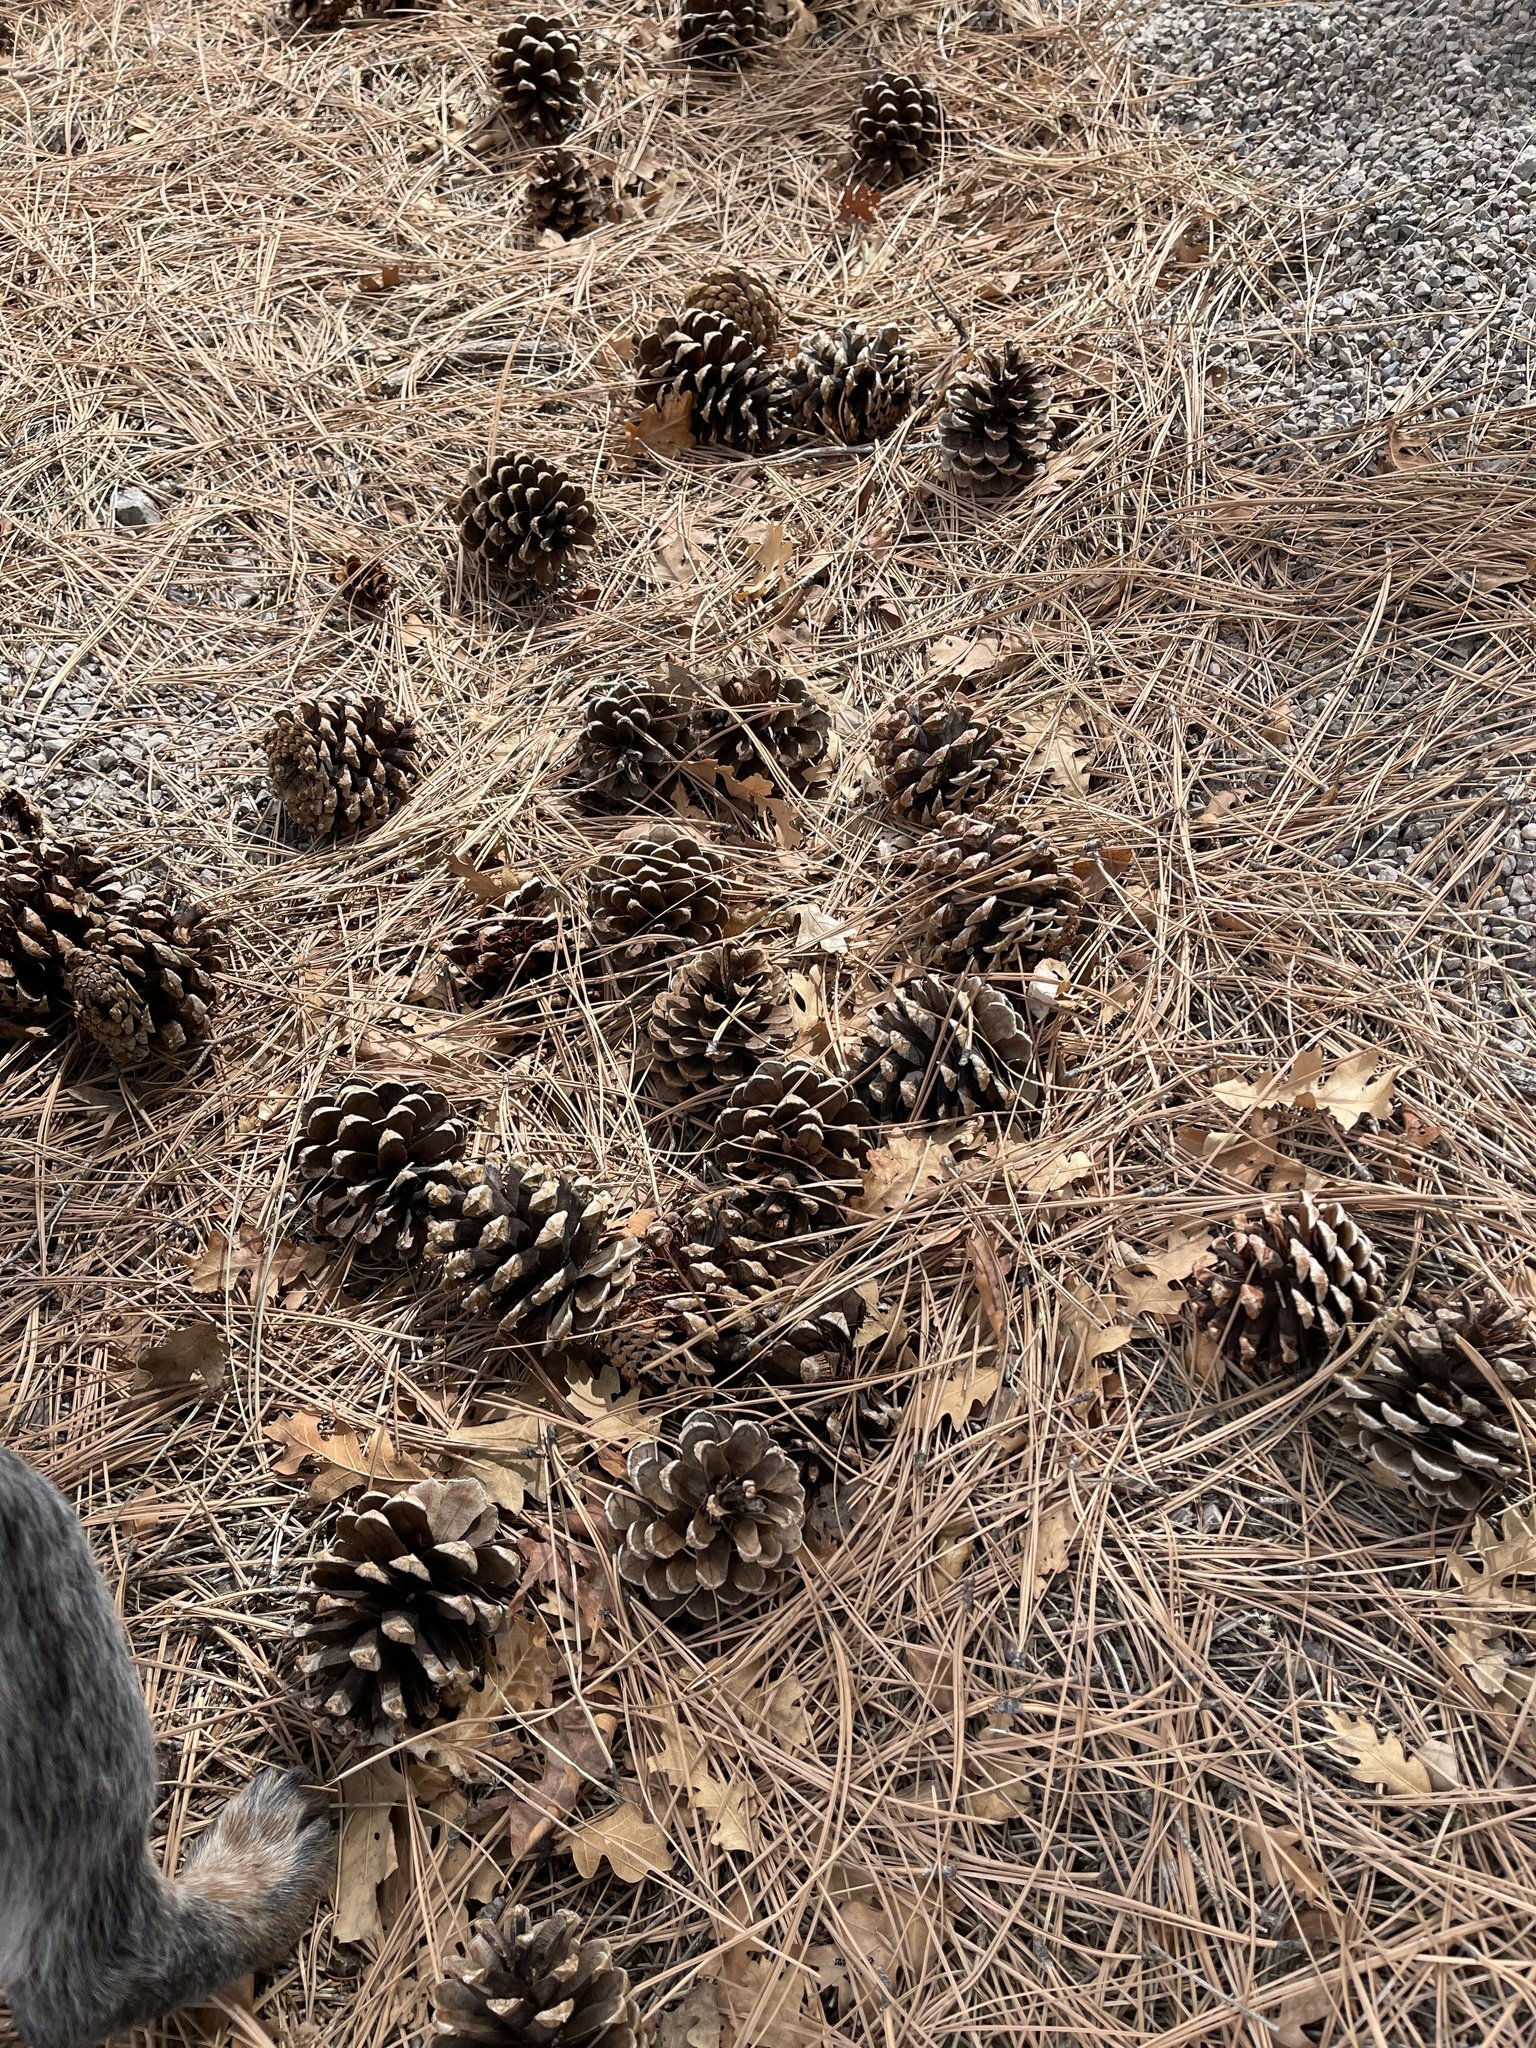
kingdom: Plantae
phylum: Tracheophyta
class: Pinopsida
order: Pinales
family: Pinaceae
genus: Pinus
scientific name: Pinus ponderosa
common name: Western yellow-pine
